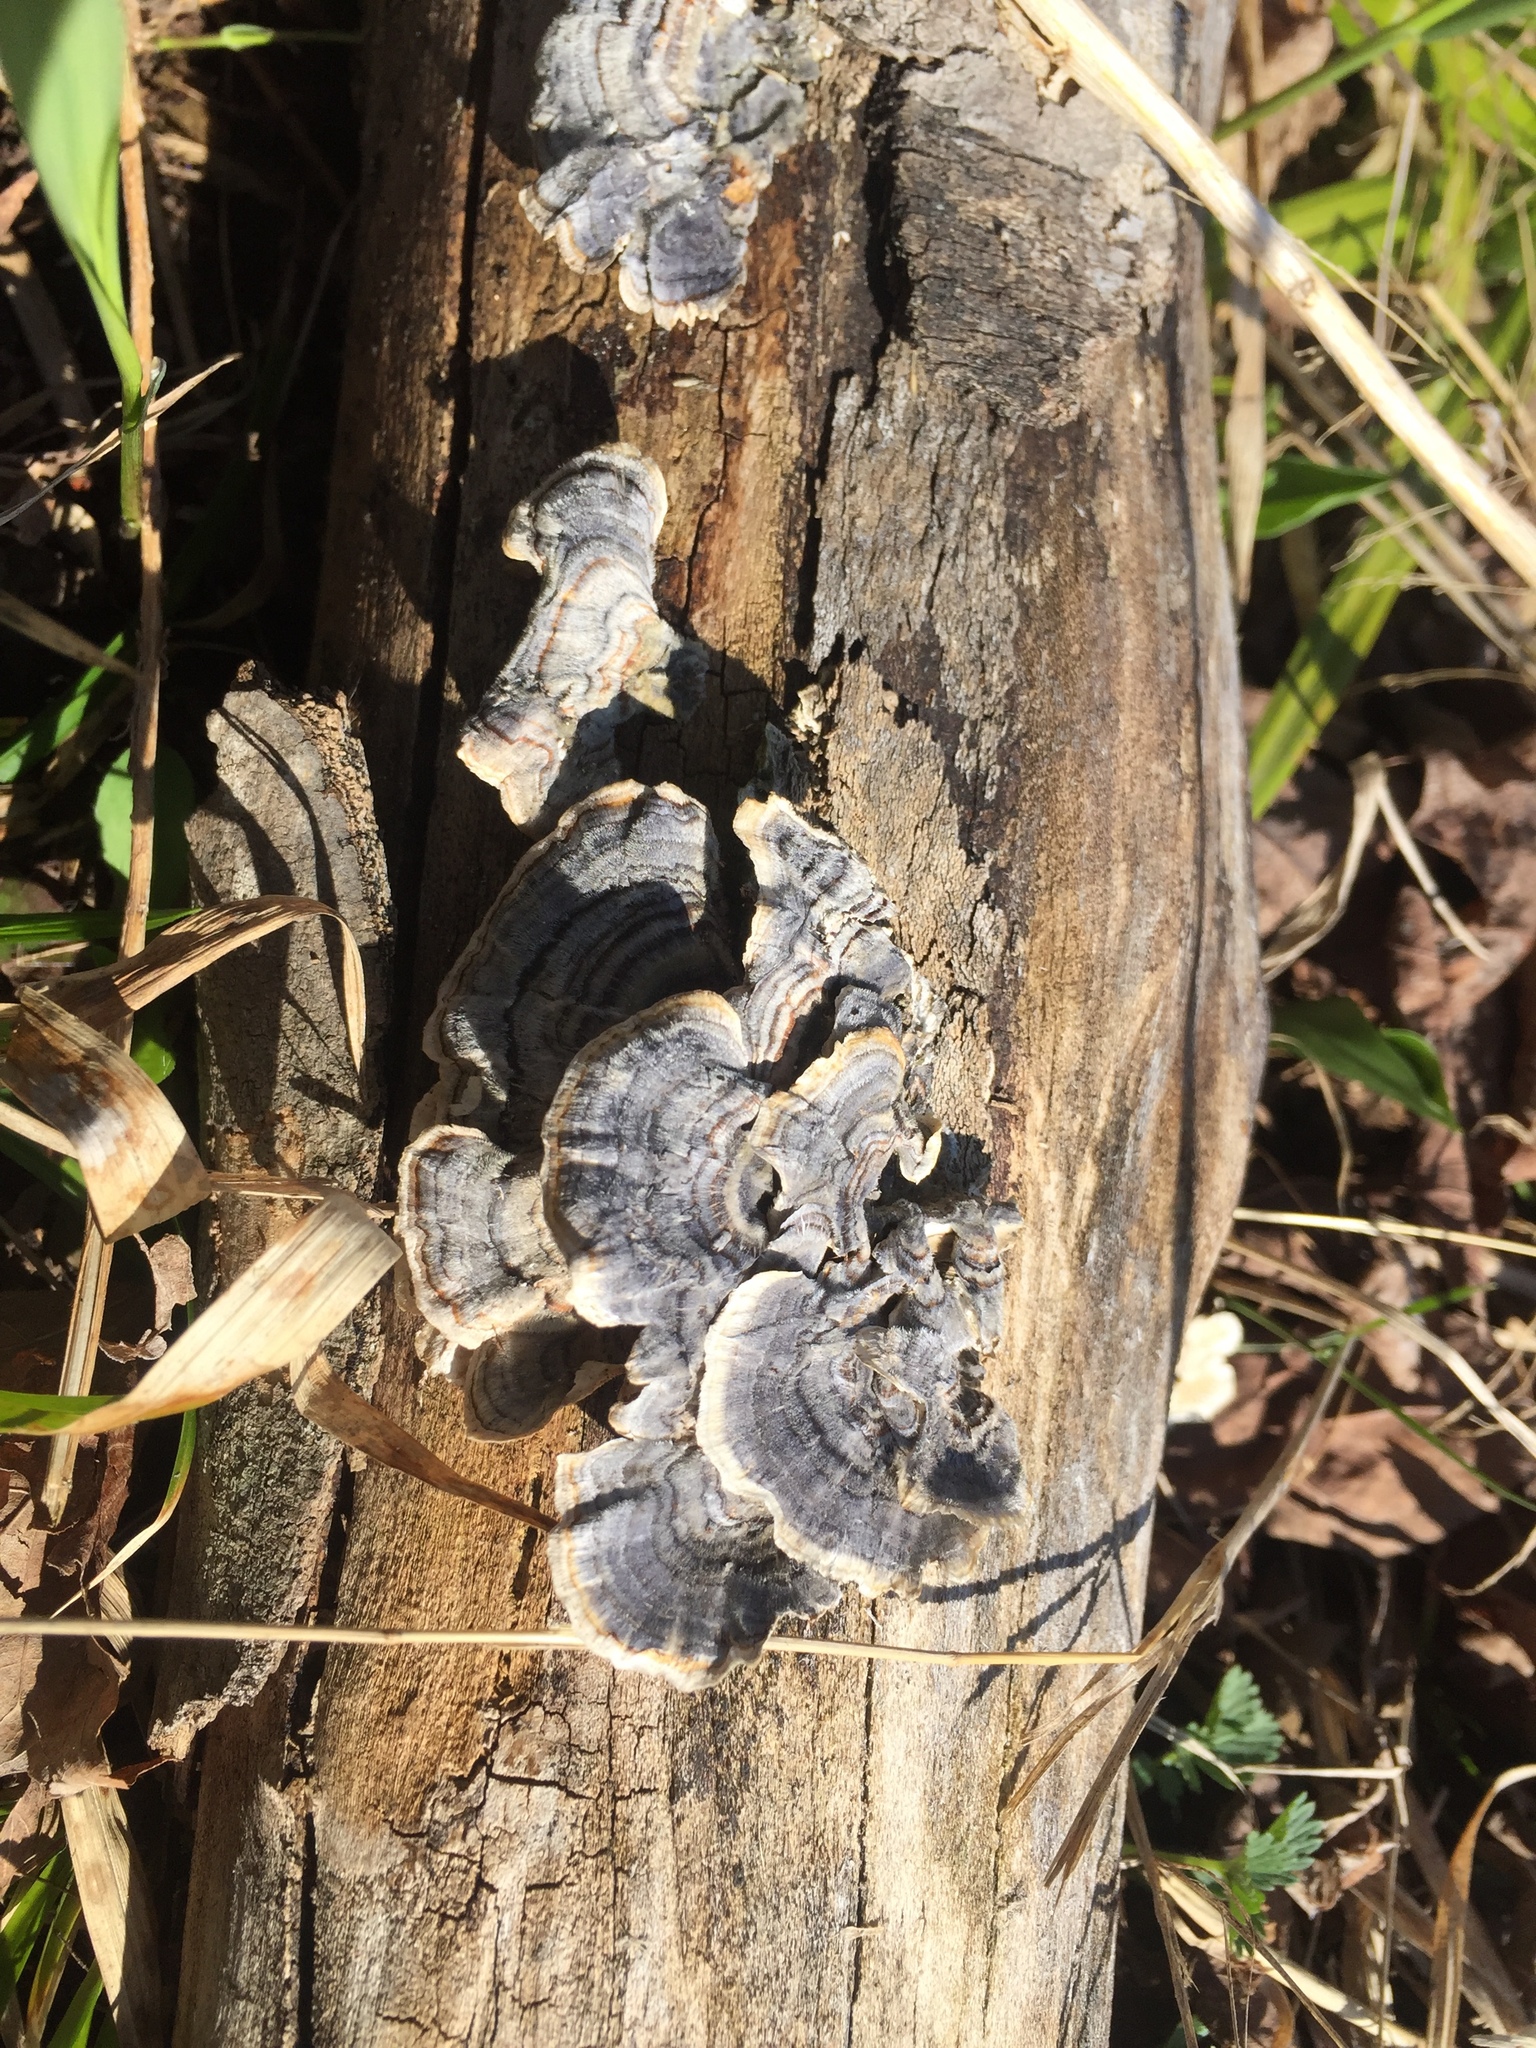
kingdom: Fungi
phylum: Basidiomycota
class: Agaricomycetes
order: Polyporales
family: Polyporaceae
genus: Trametes
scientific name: Trametes versicolor
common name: Turkeytail
